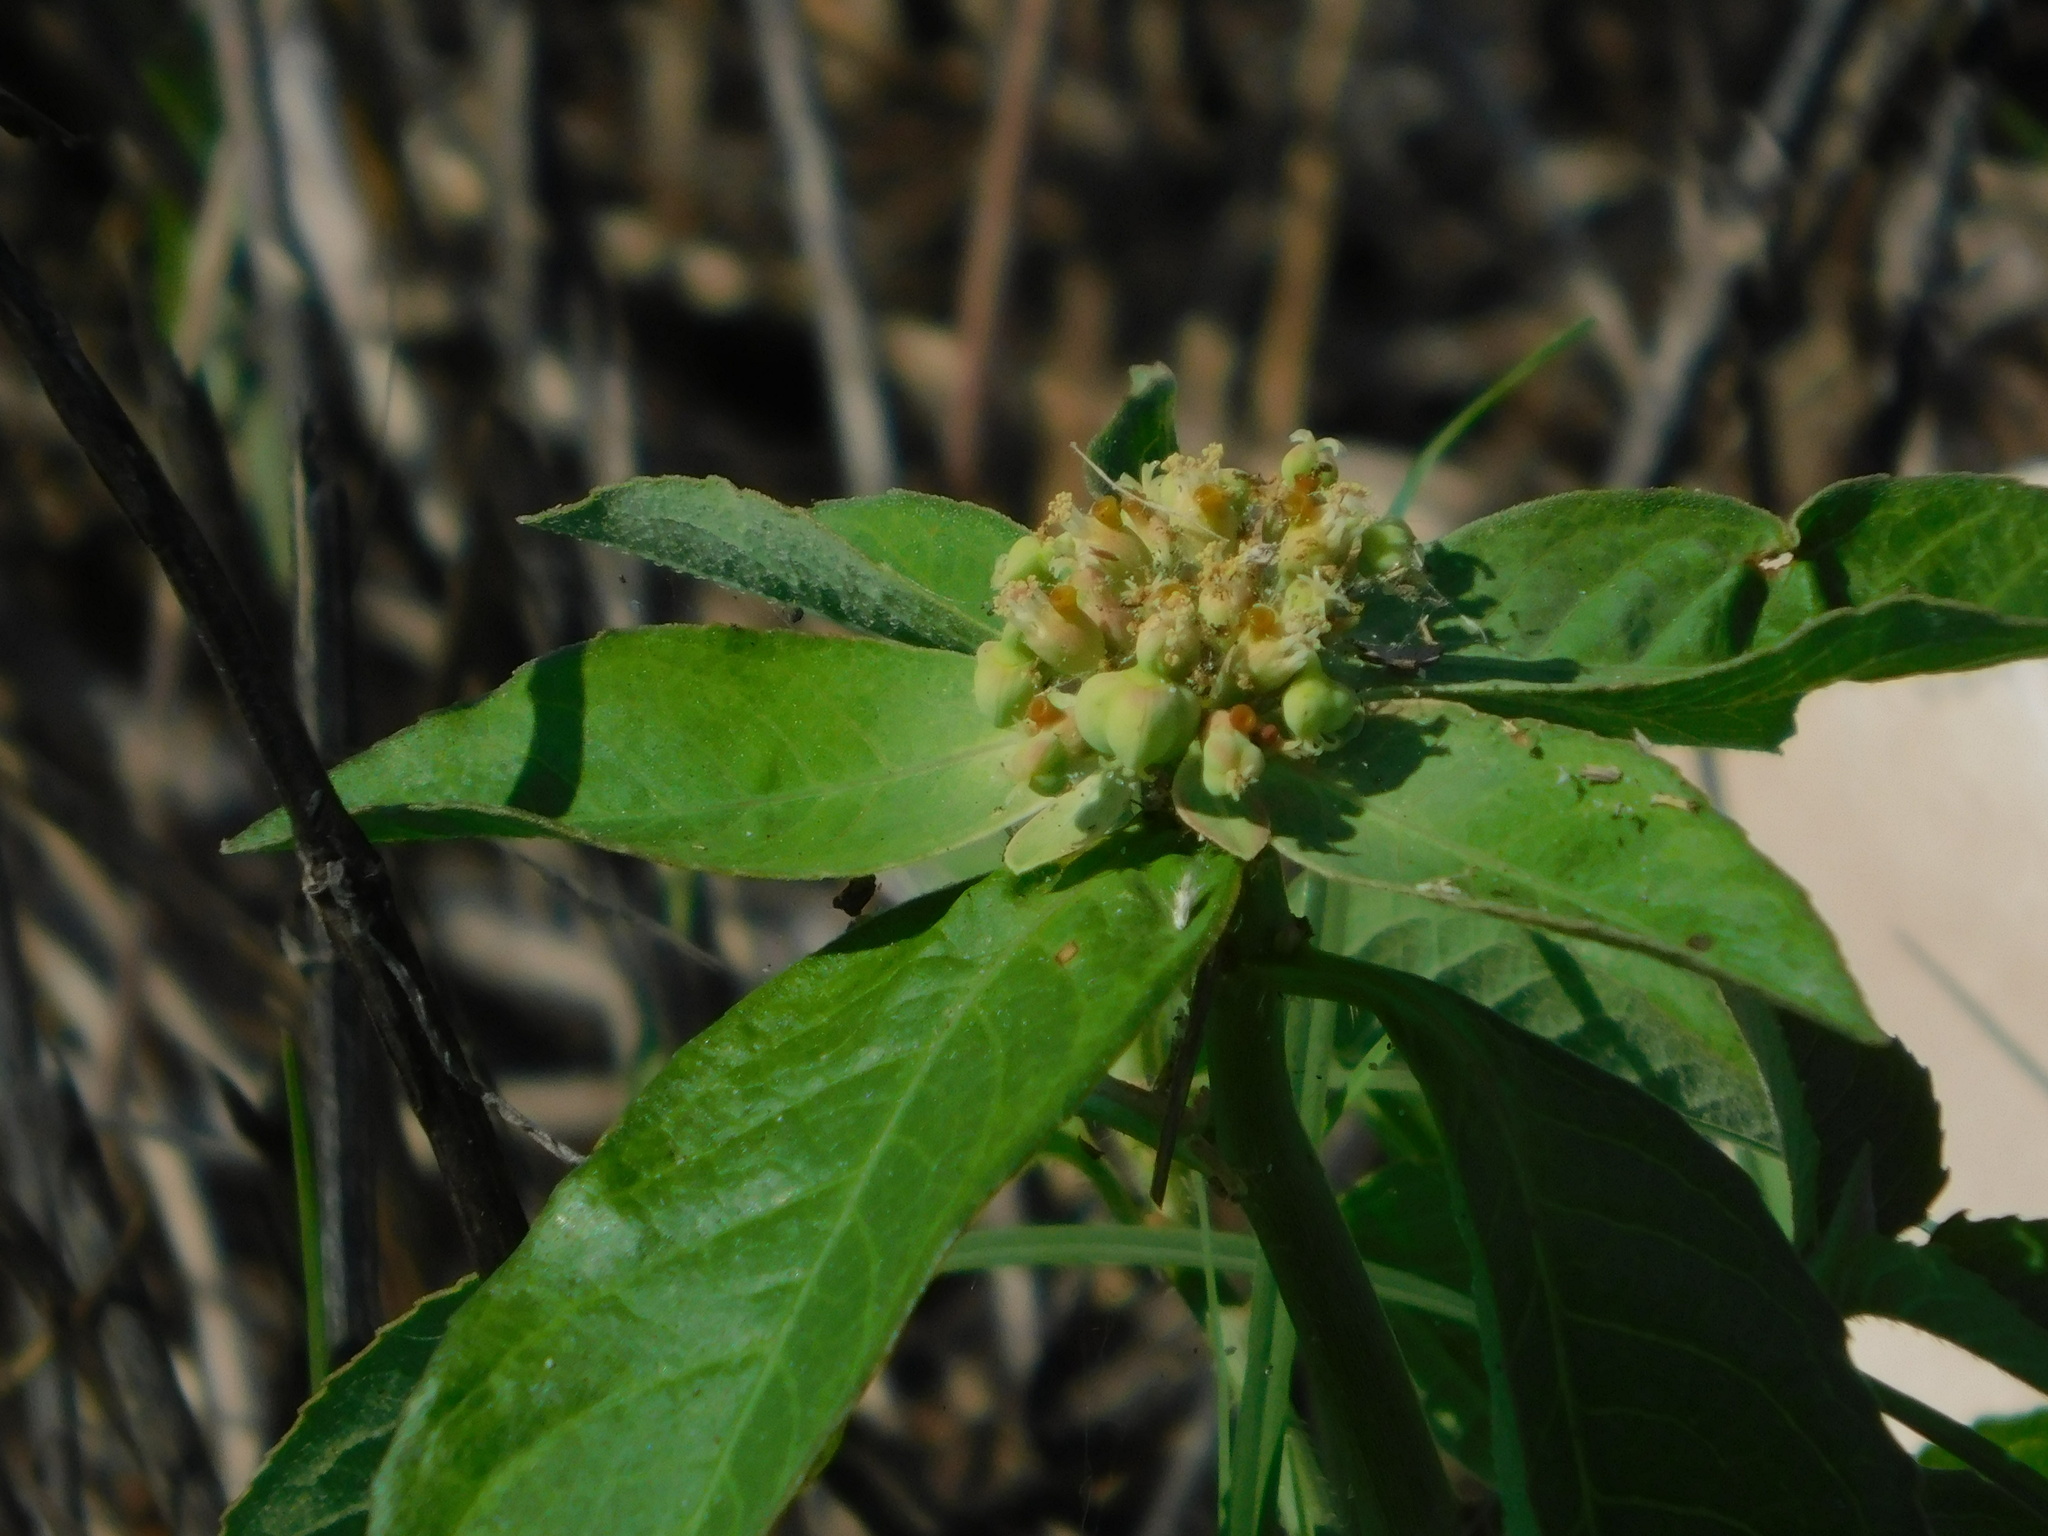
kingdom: Plantae
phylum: Tracheophyta
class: Magnoliopsida
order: Malpighiales
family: Euphorbiaceae
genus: Euphorbia
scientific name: Euphorbia heterophylla
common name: Mexican fireplant
